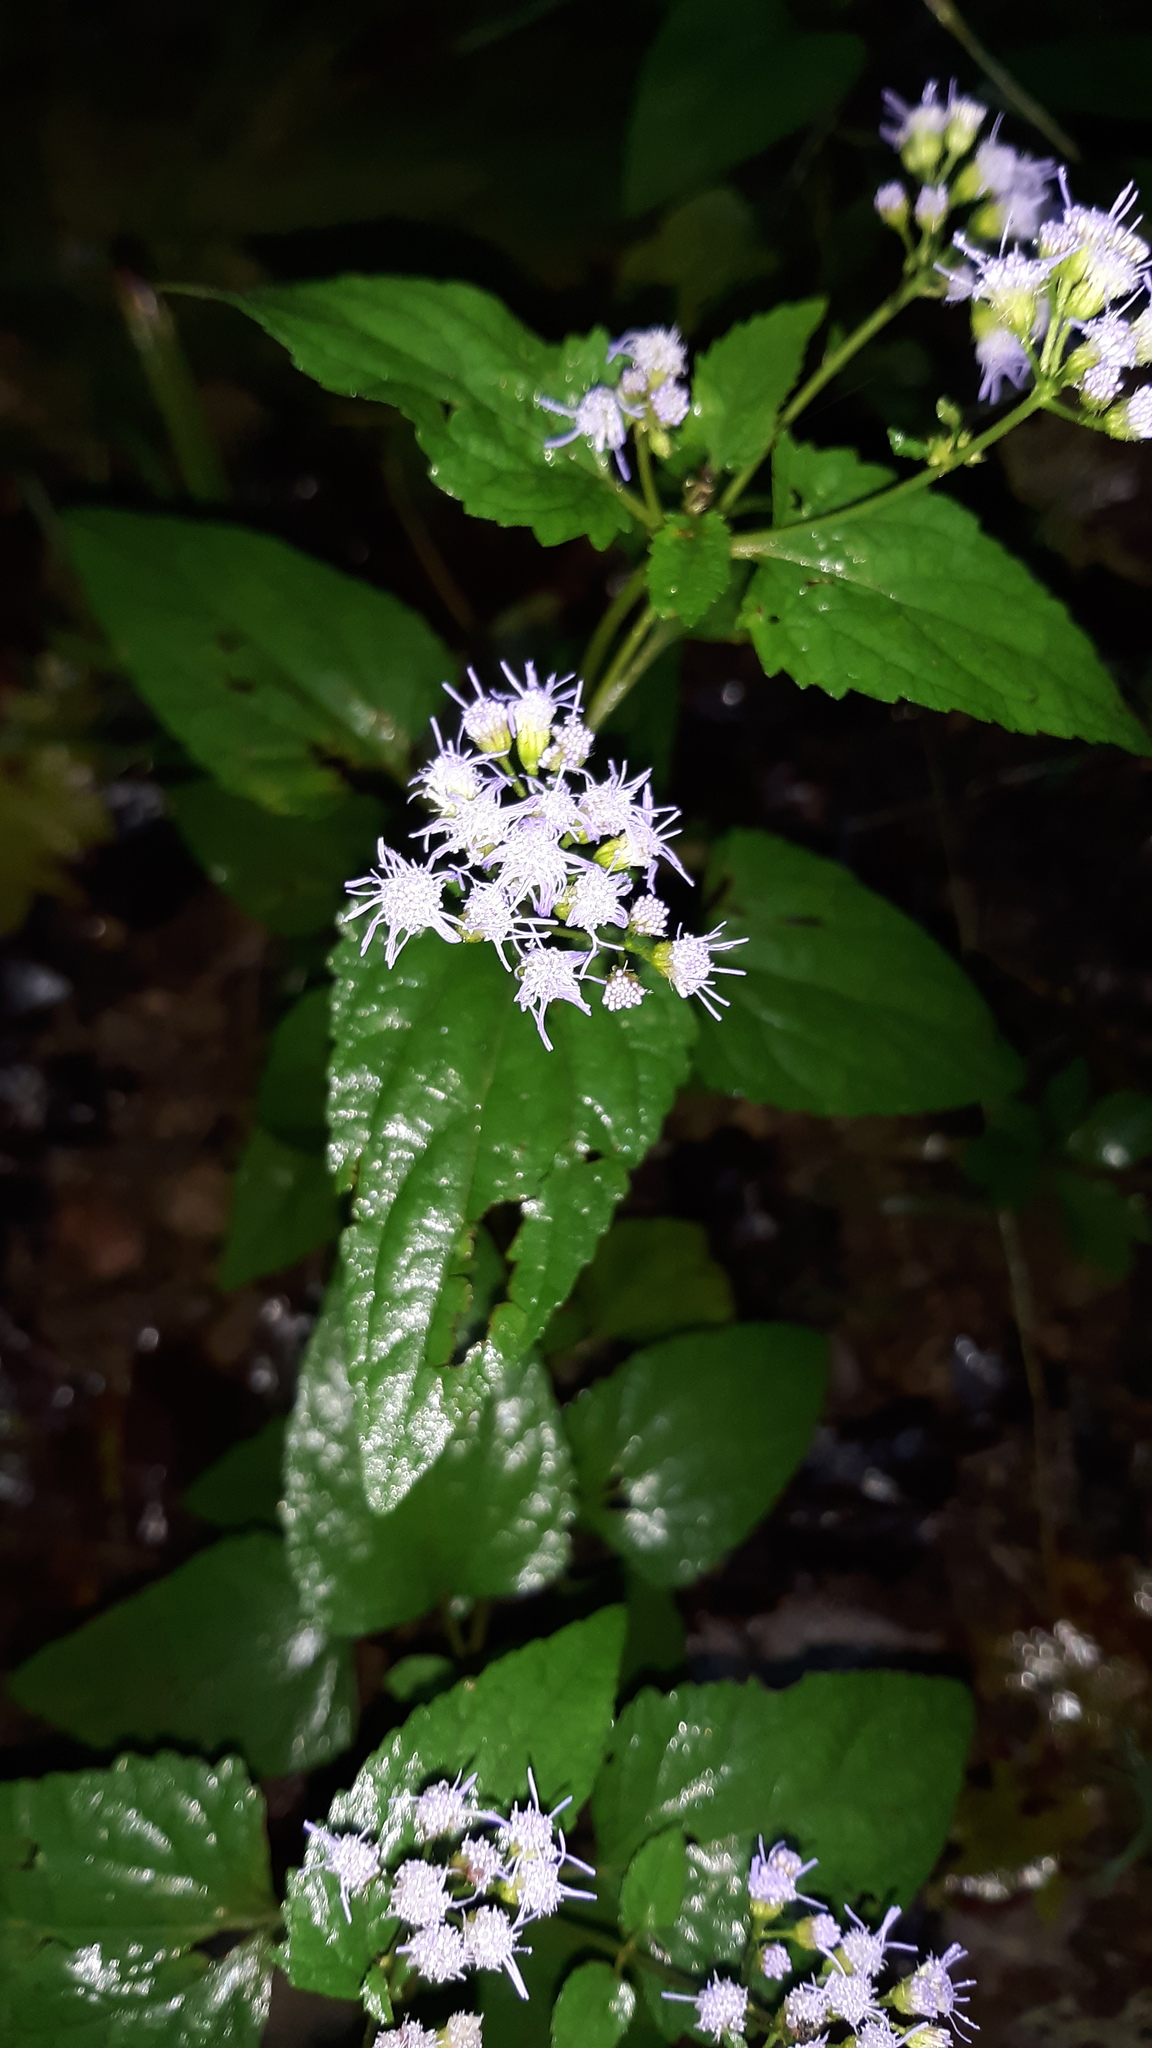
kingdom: Plantae
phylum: Tracheophyta
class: Magnoliopsida
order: Asterales
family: Asteraceae
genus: Conoclinium
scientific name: Conoclinium coelestinum
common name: Blue mistflower
